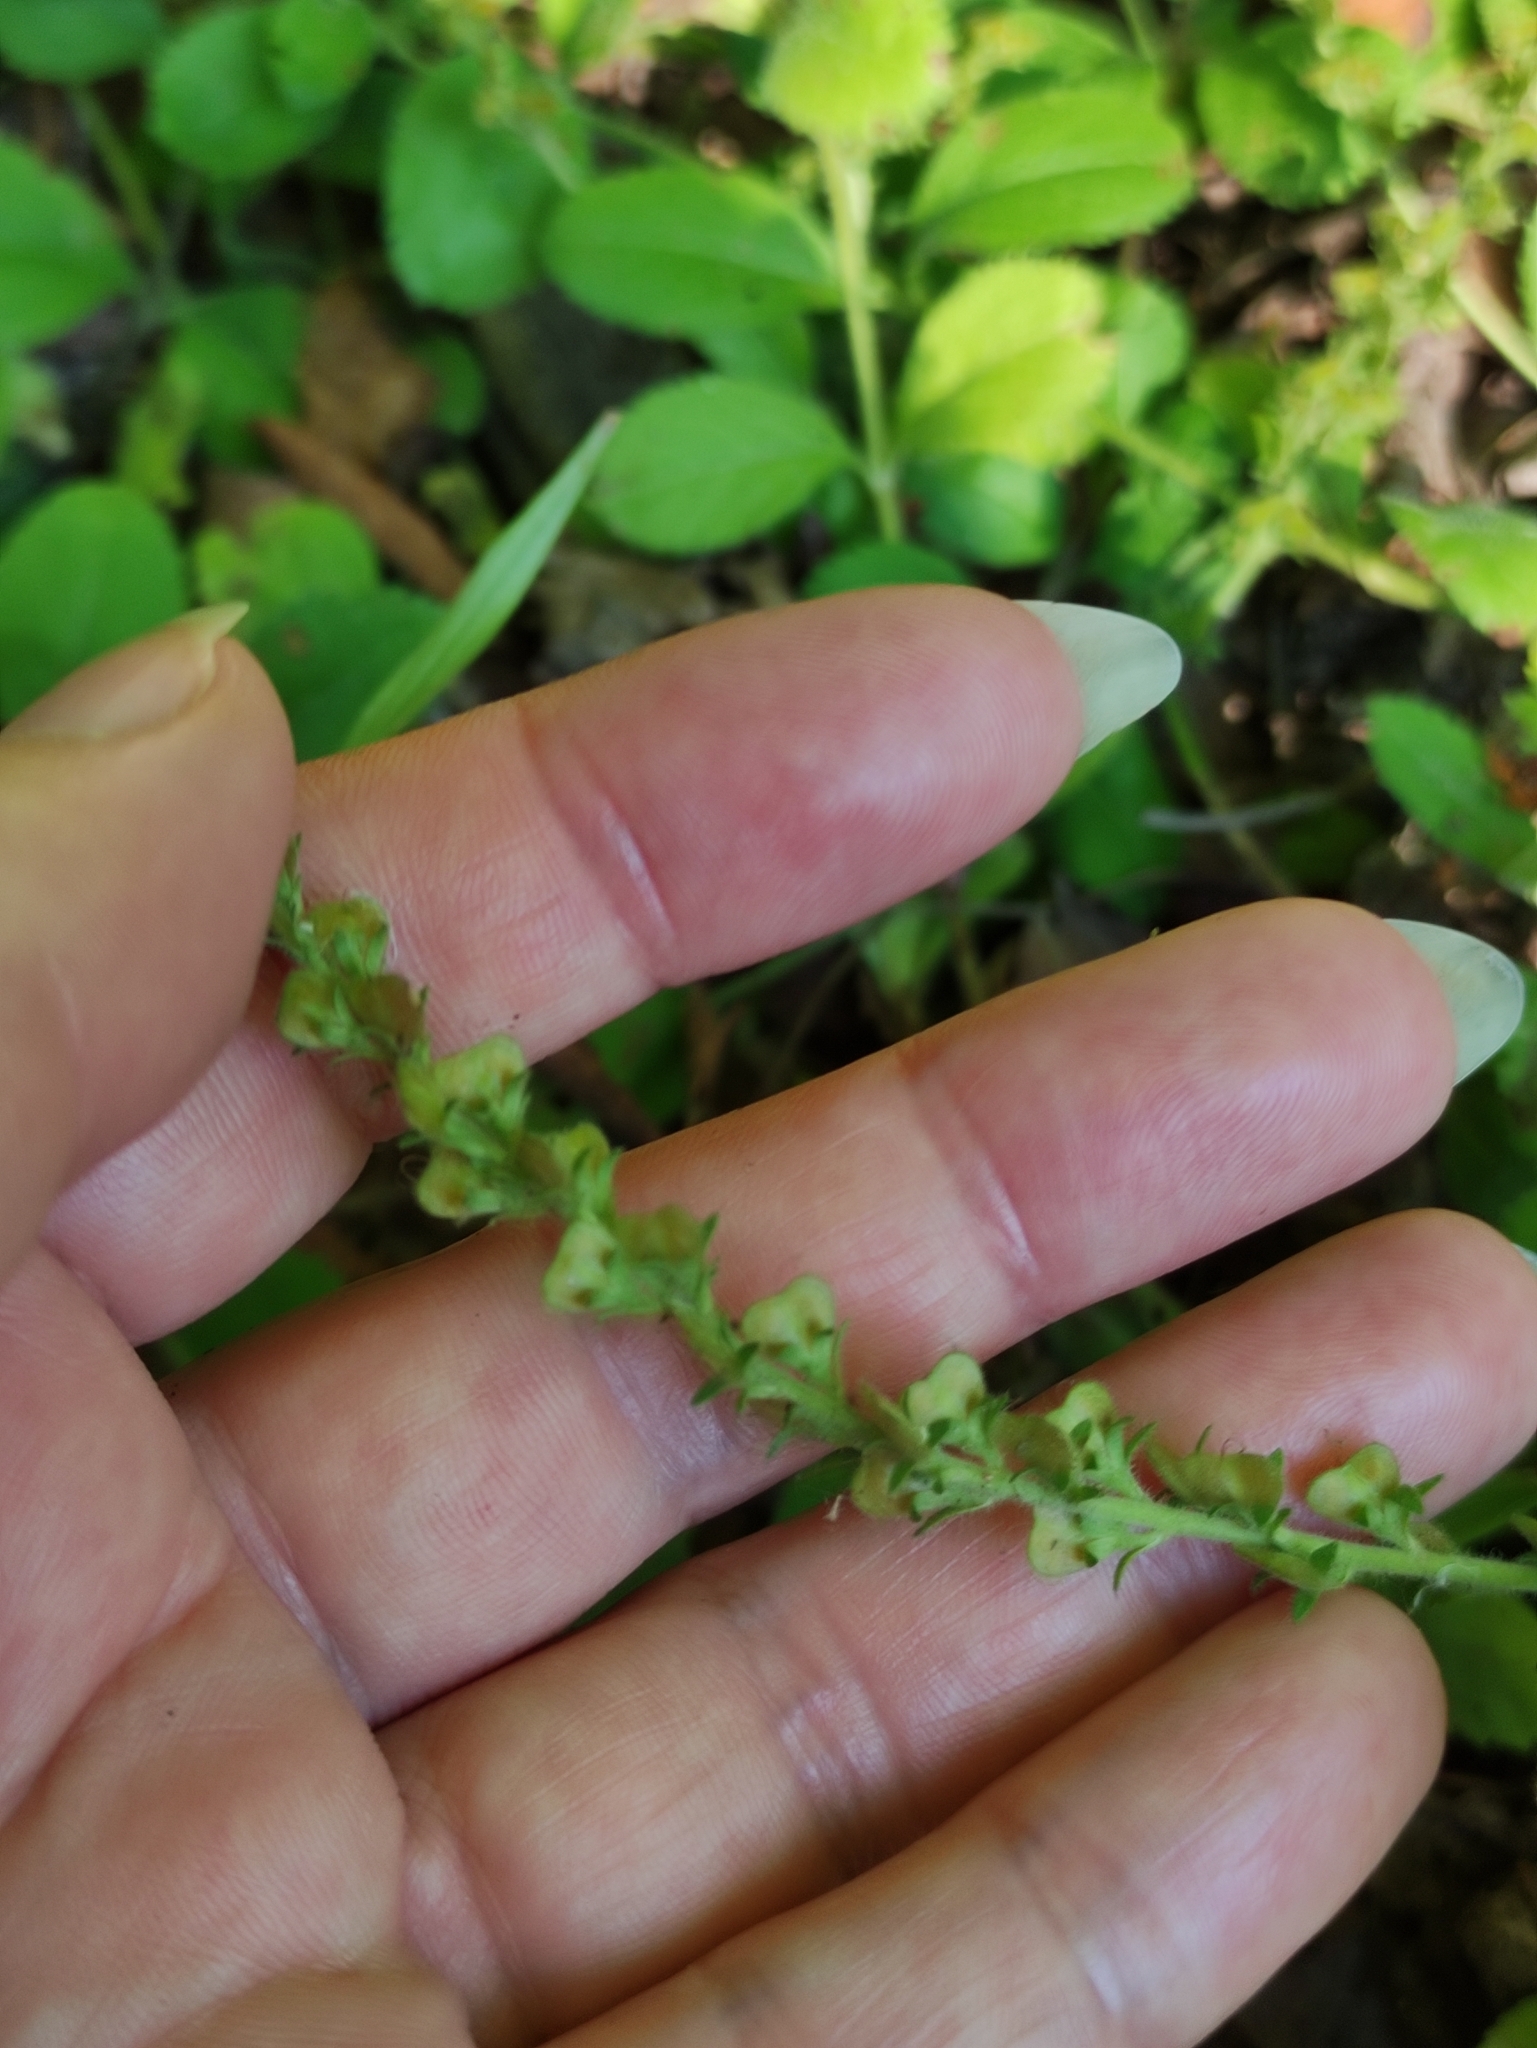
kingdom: Plantae
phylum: Tracheophyta
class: Magnoliopsida
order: Lamiales
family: Plantaginaceae
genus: Veronica
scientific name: Veronica officinalis
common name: Common speedwell
